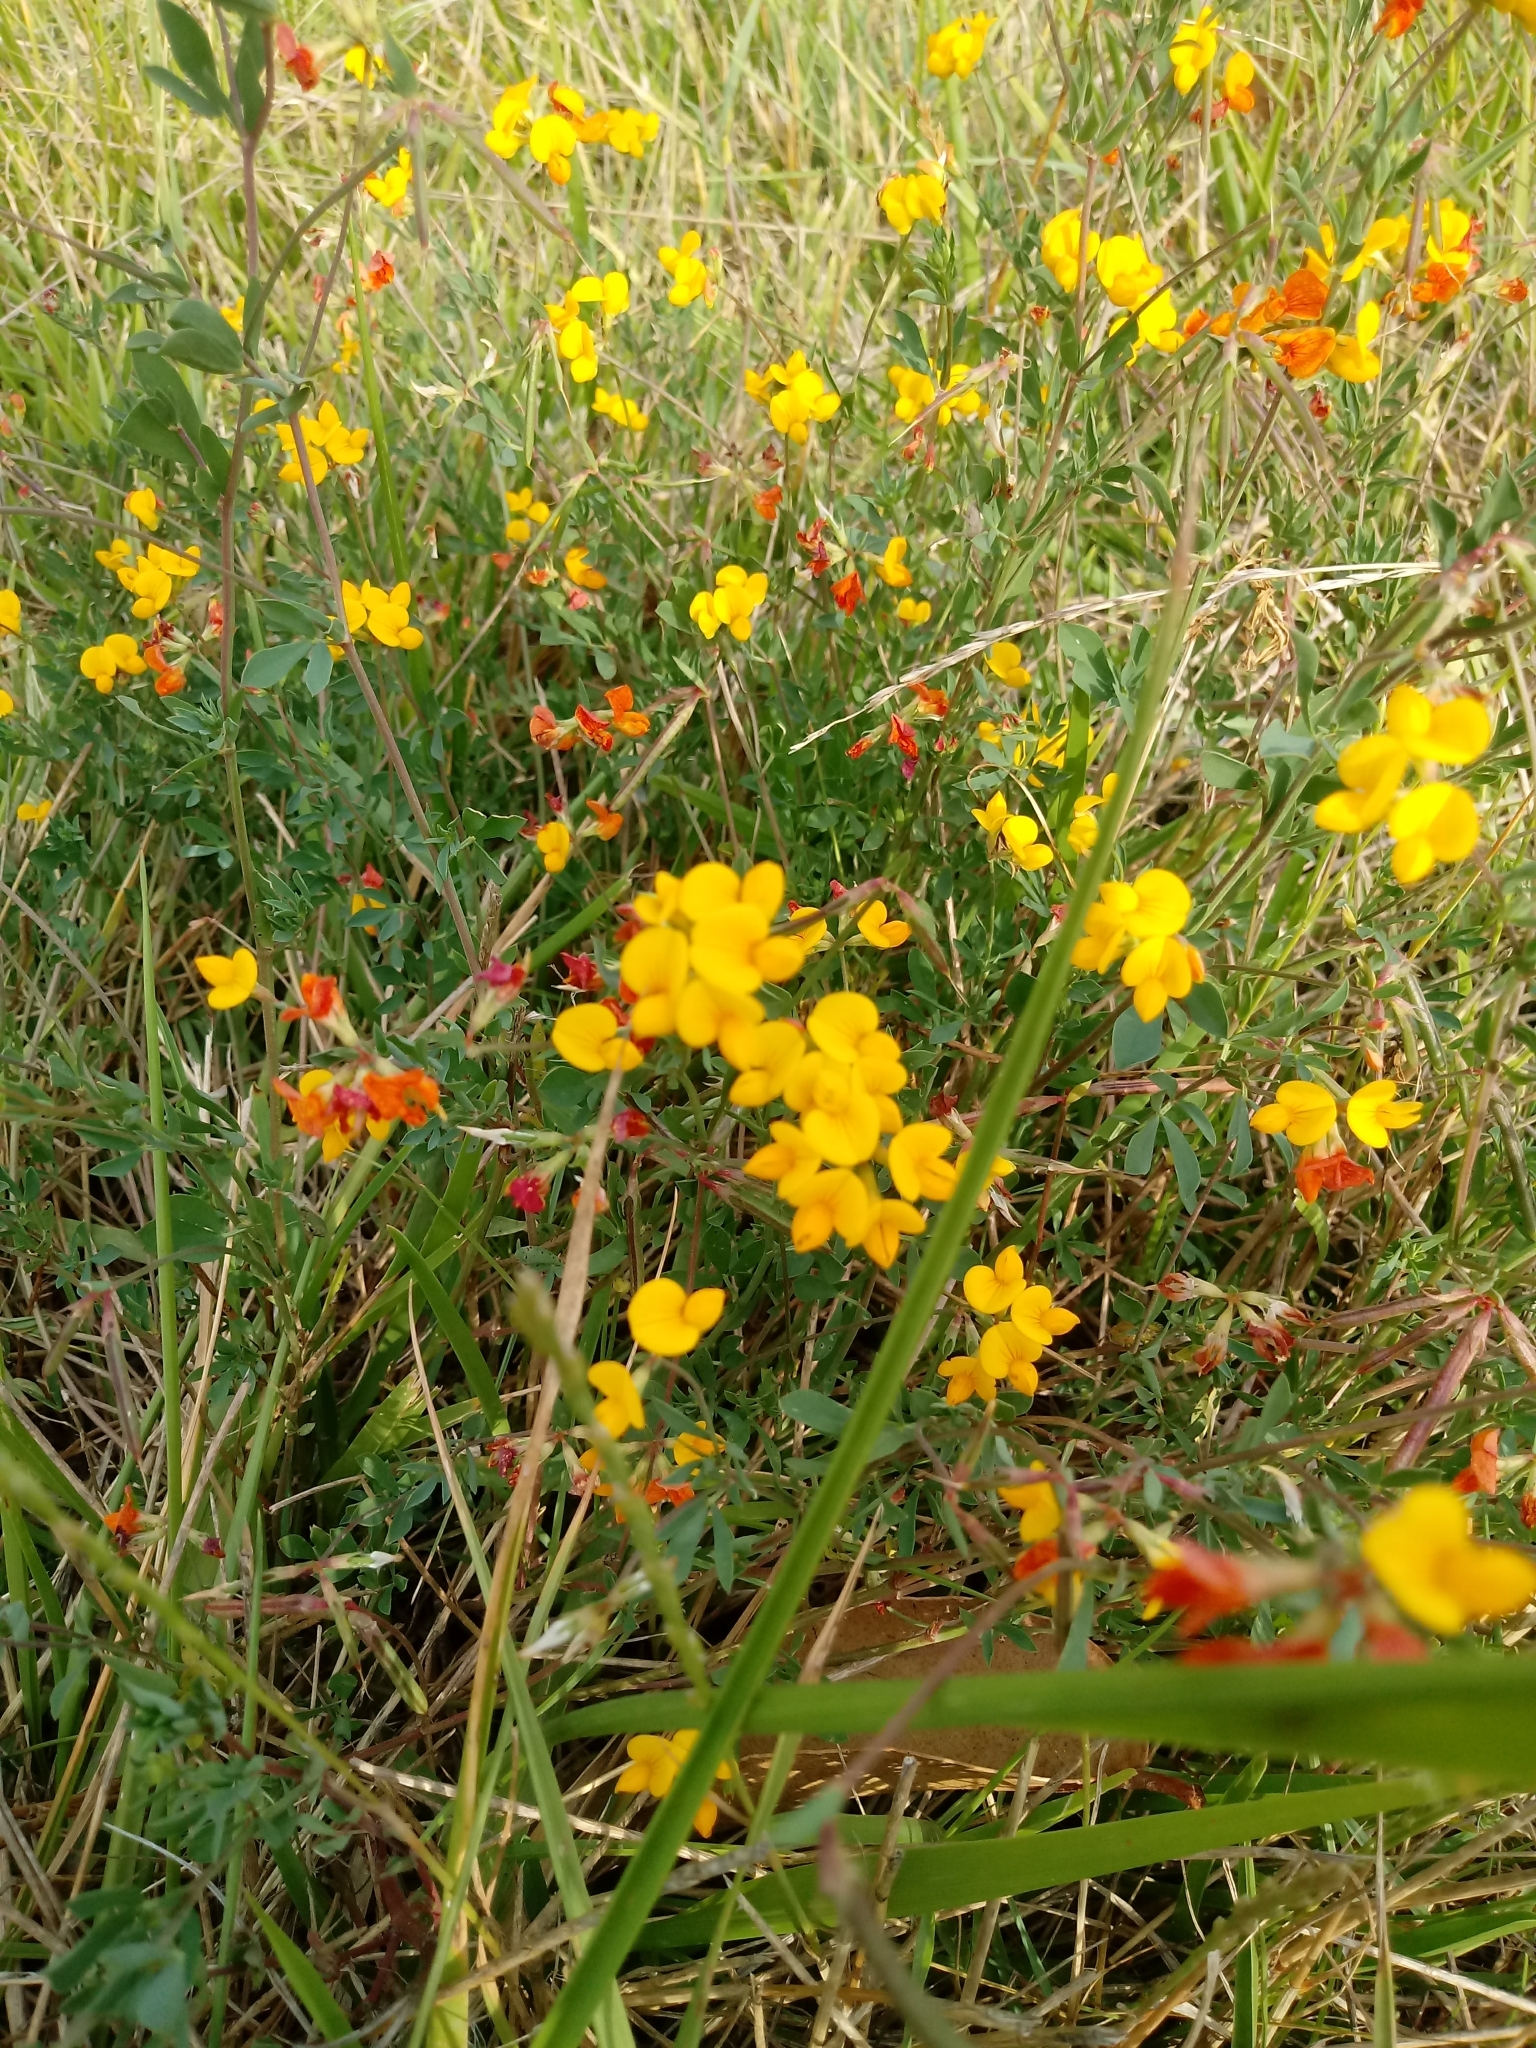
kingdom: Plantae
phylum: Tracheophyta
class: Magnoliopsida
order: Fabales
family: Fabaceae
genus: Lotus
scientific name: Lotus tenuis
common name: Narrow-leaved bird's-foot-trefoil
